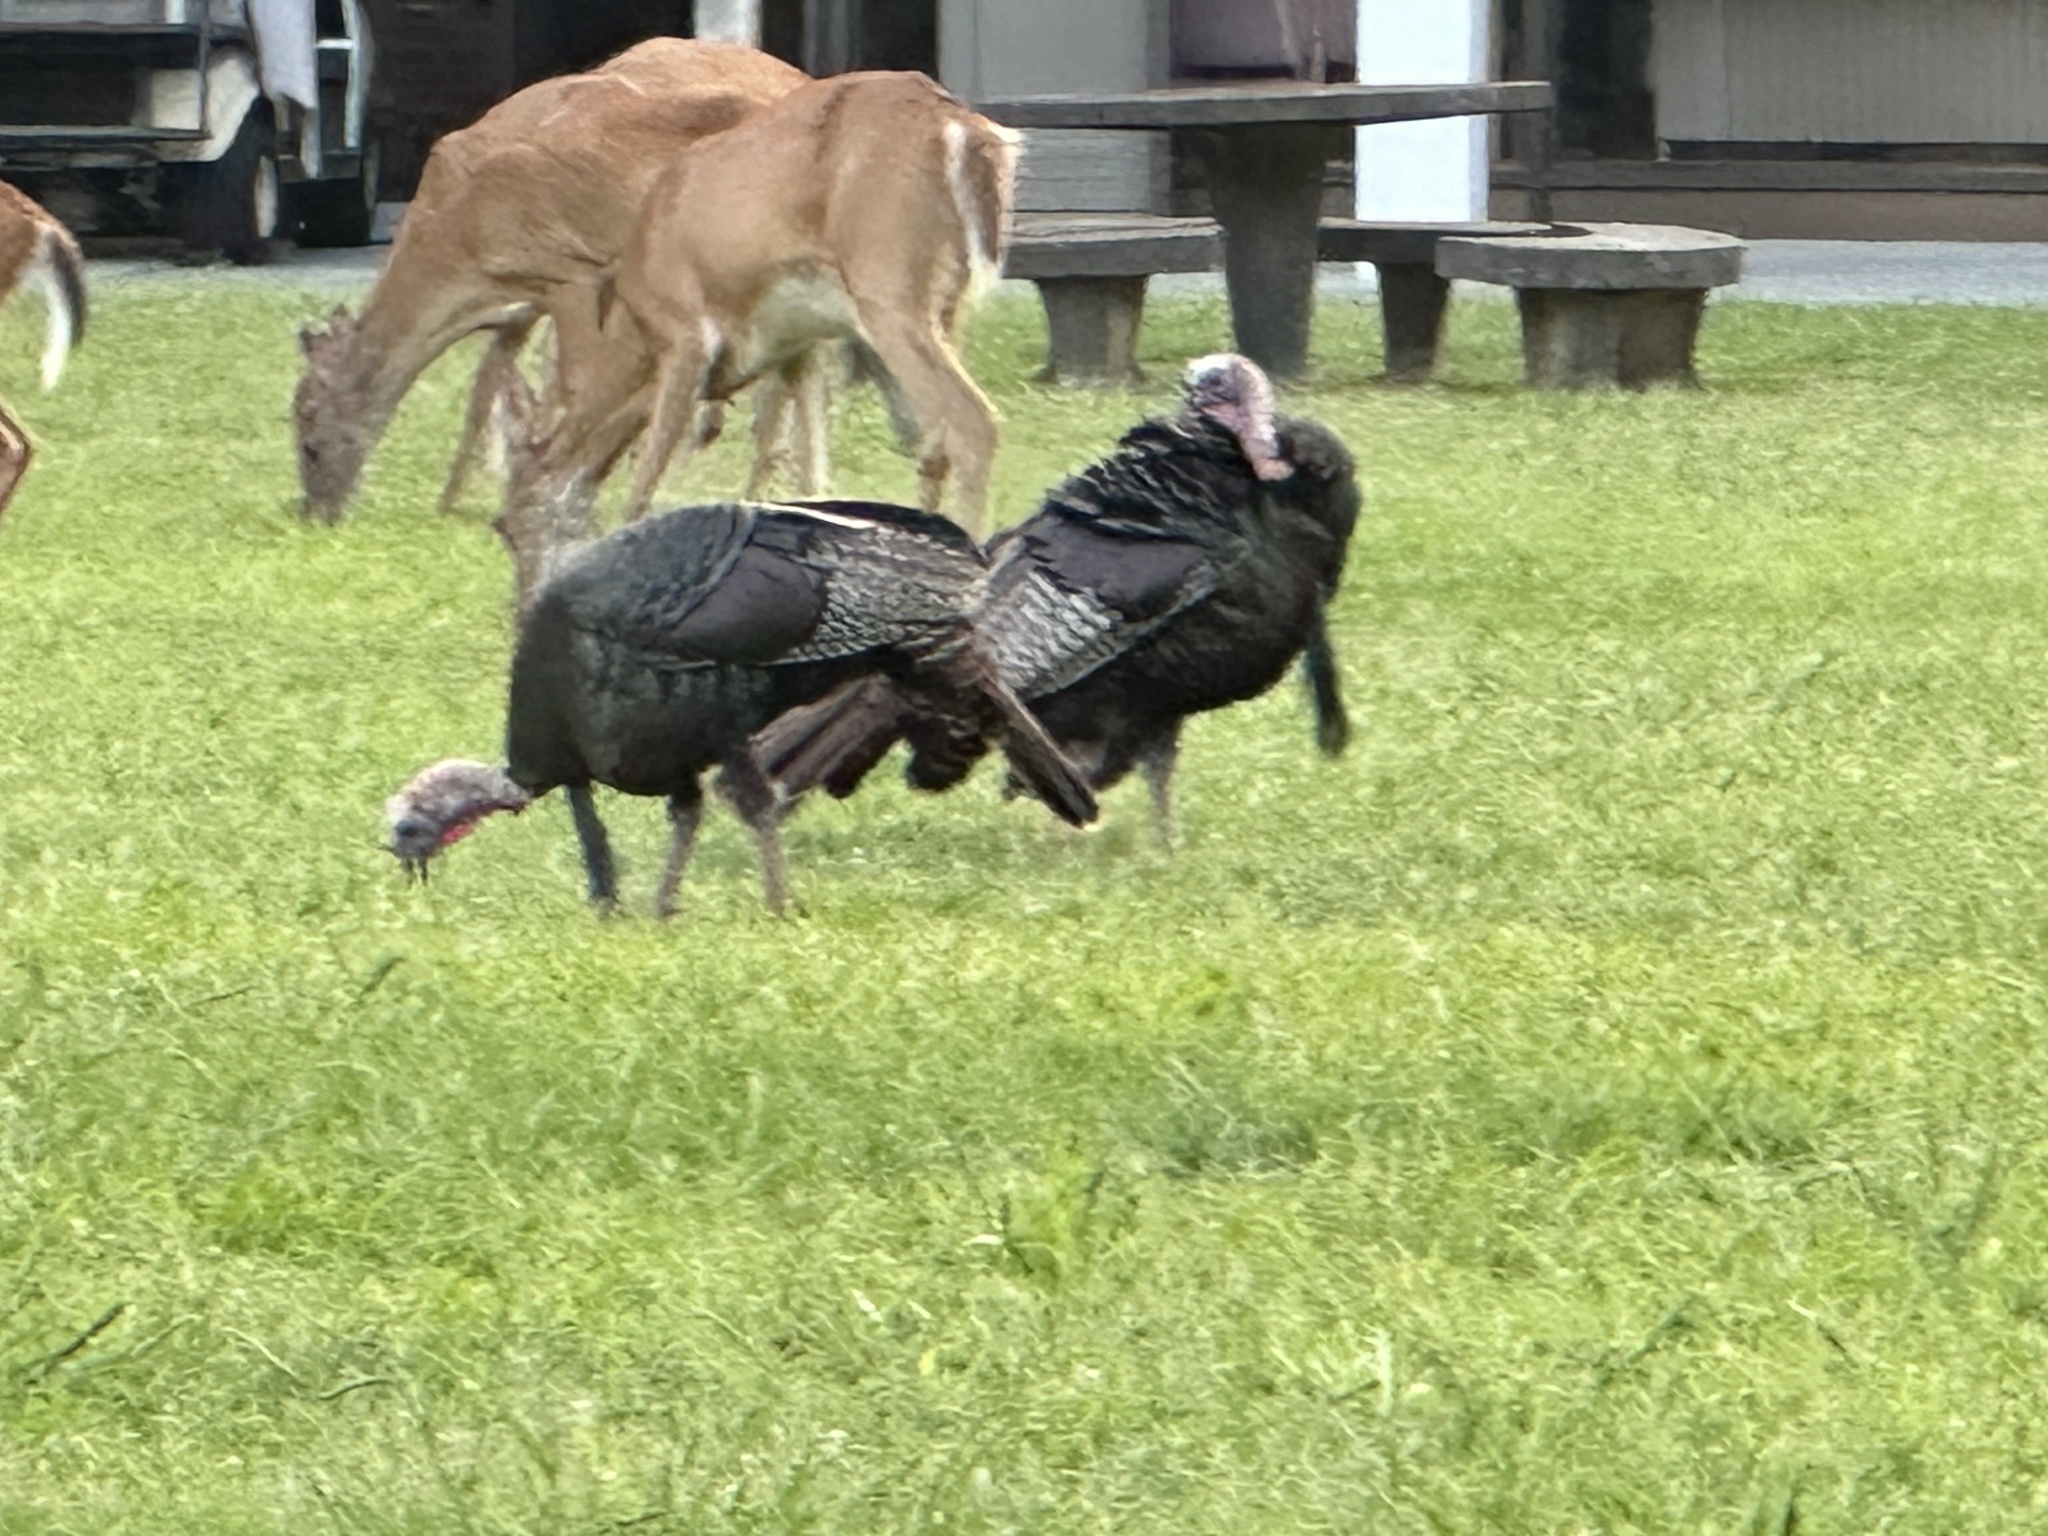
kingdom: Animalia
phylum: Chordata
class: Aves
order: Galliformes
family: Phasianidae
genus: Meleagris
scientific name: Meleagris gallopavo
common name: Wild turkey
